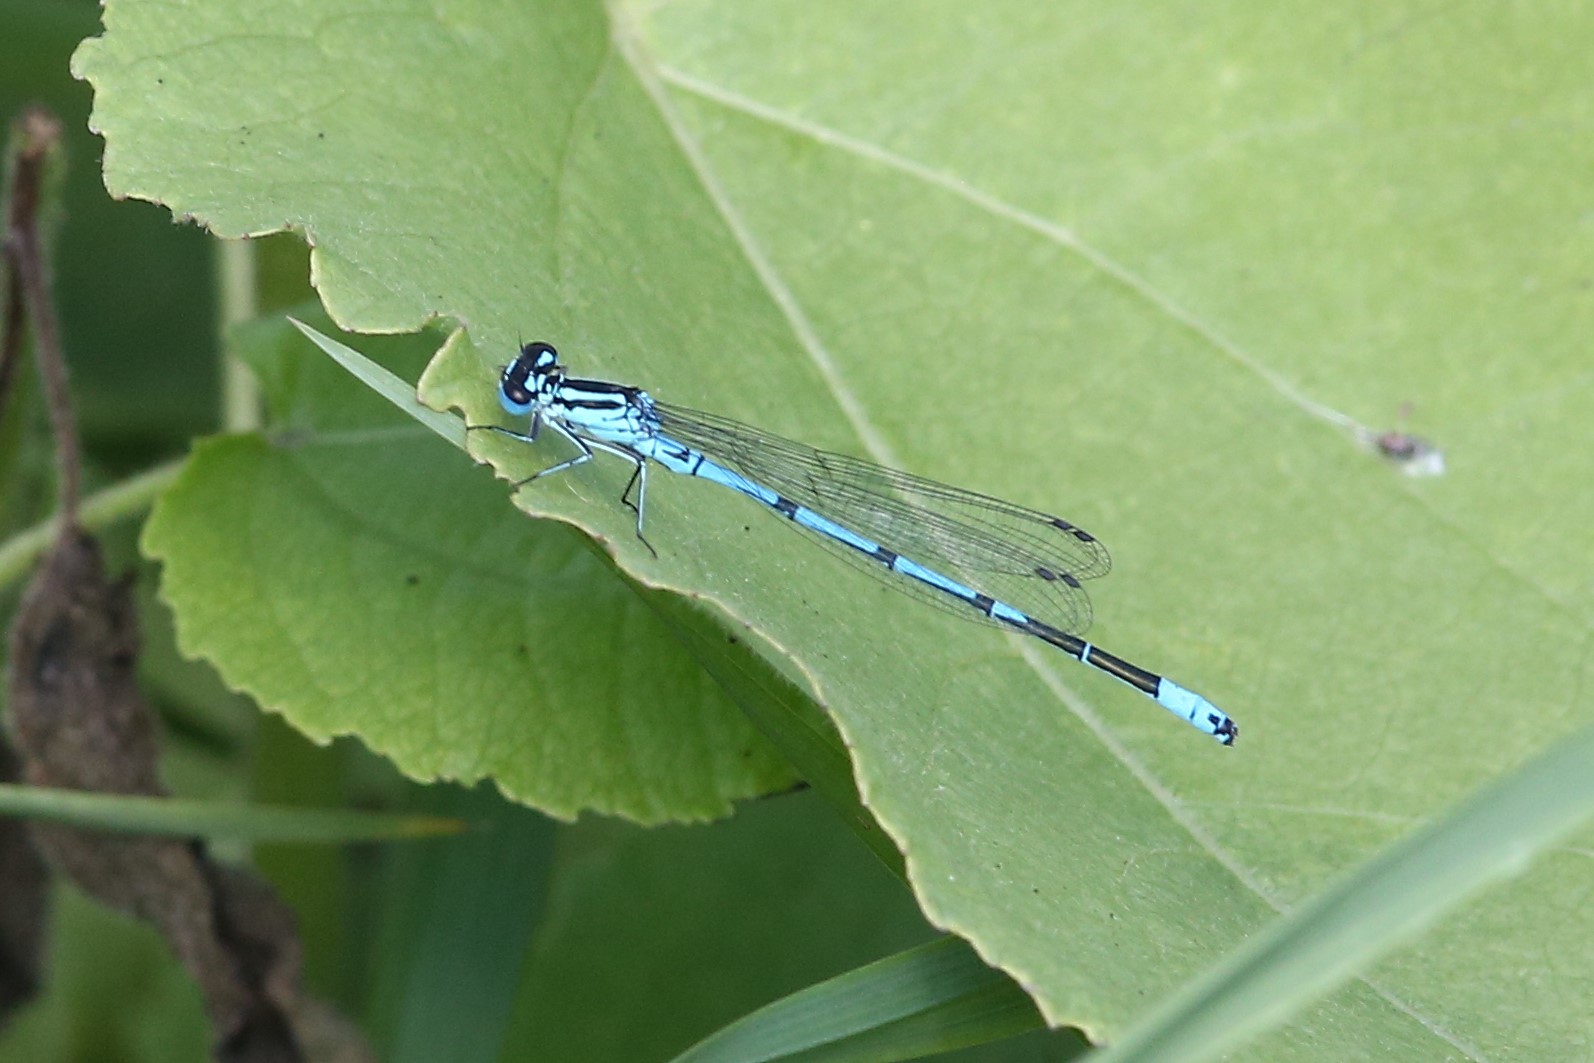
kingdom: Animalia
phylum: Arthropoda
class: Insecta
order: Odonata
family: Coenagrionidae
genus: Coenagrion
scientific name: Coenagrion puella
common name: Azure damselfly
